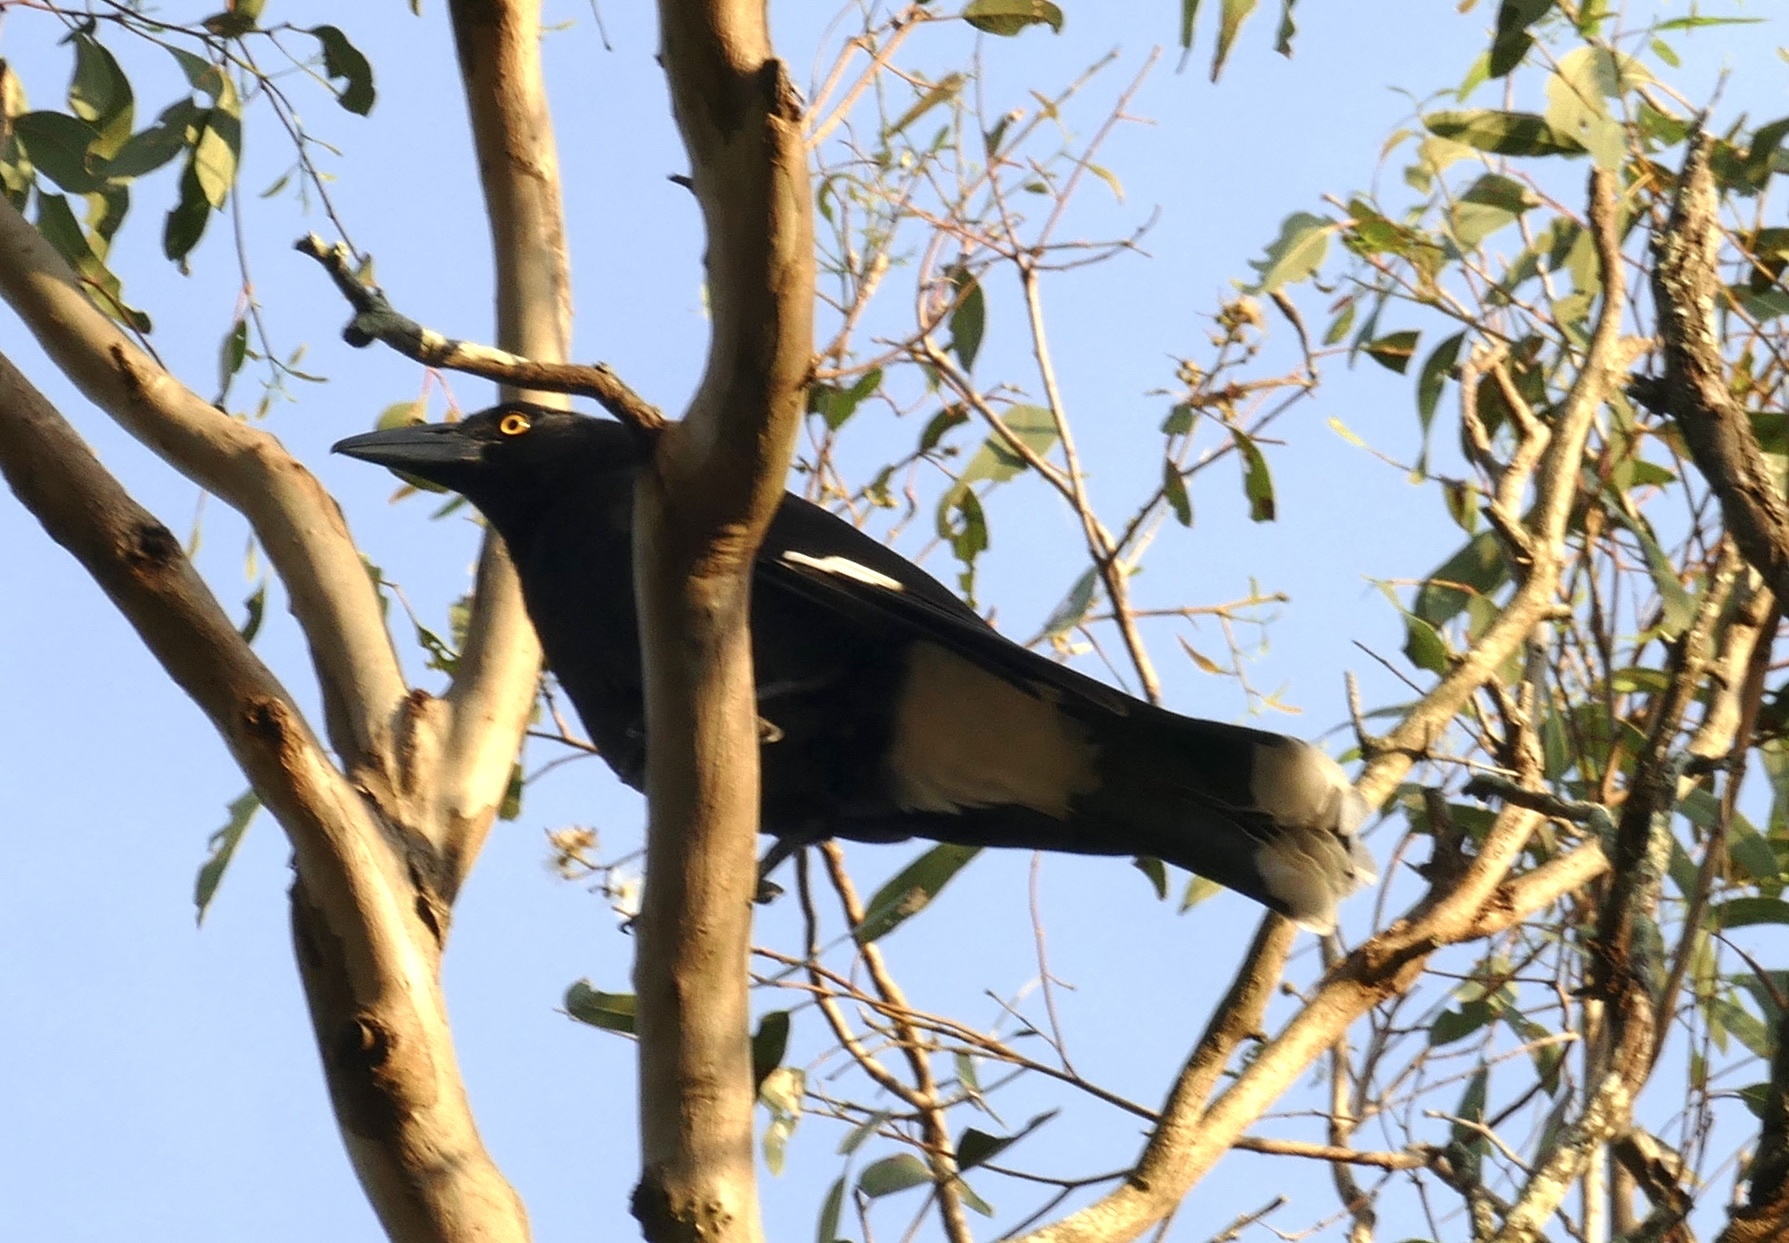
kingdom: Animalia
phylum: Chordata
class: Aves
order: Passeriformes
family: Cracticidae
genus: Strepera
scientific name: Strepera graculina
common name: Pied currawong
